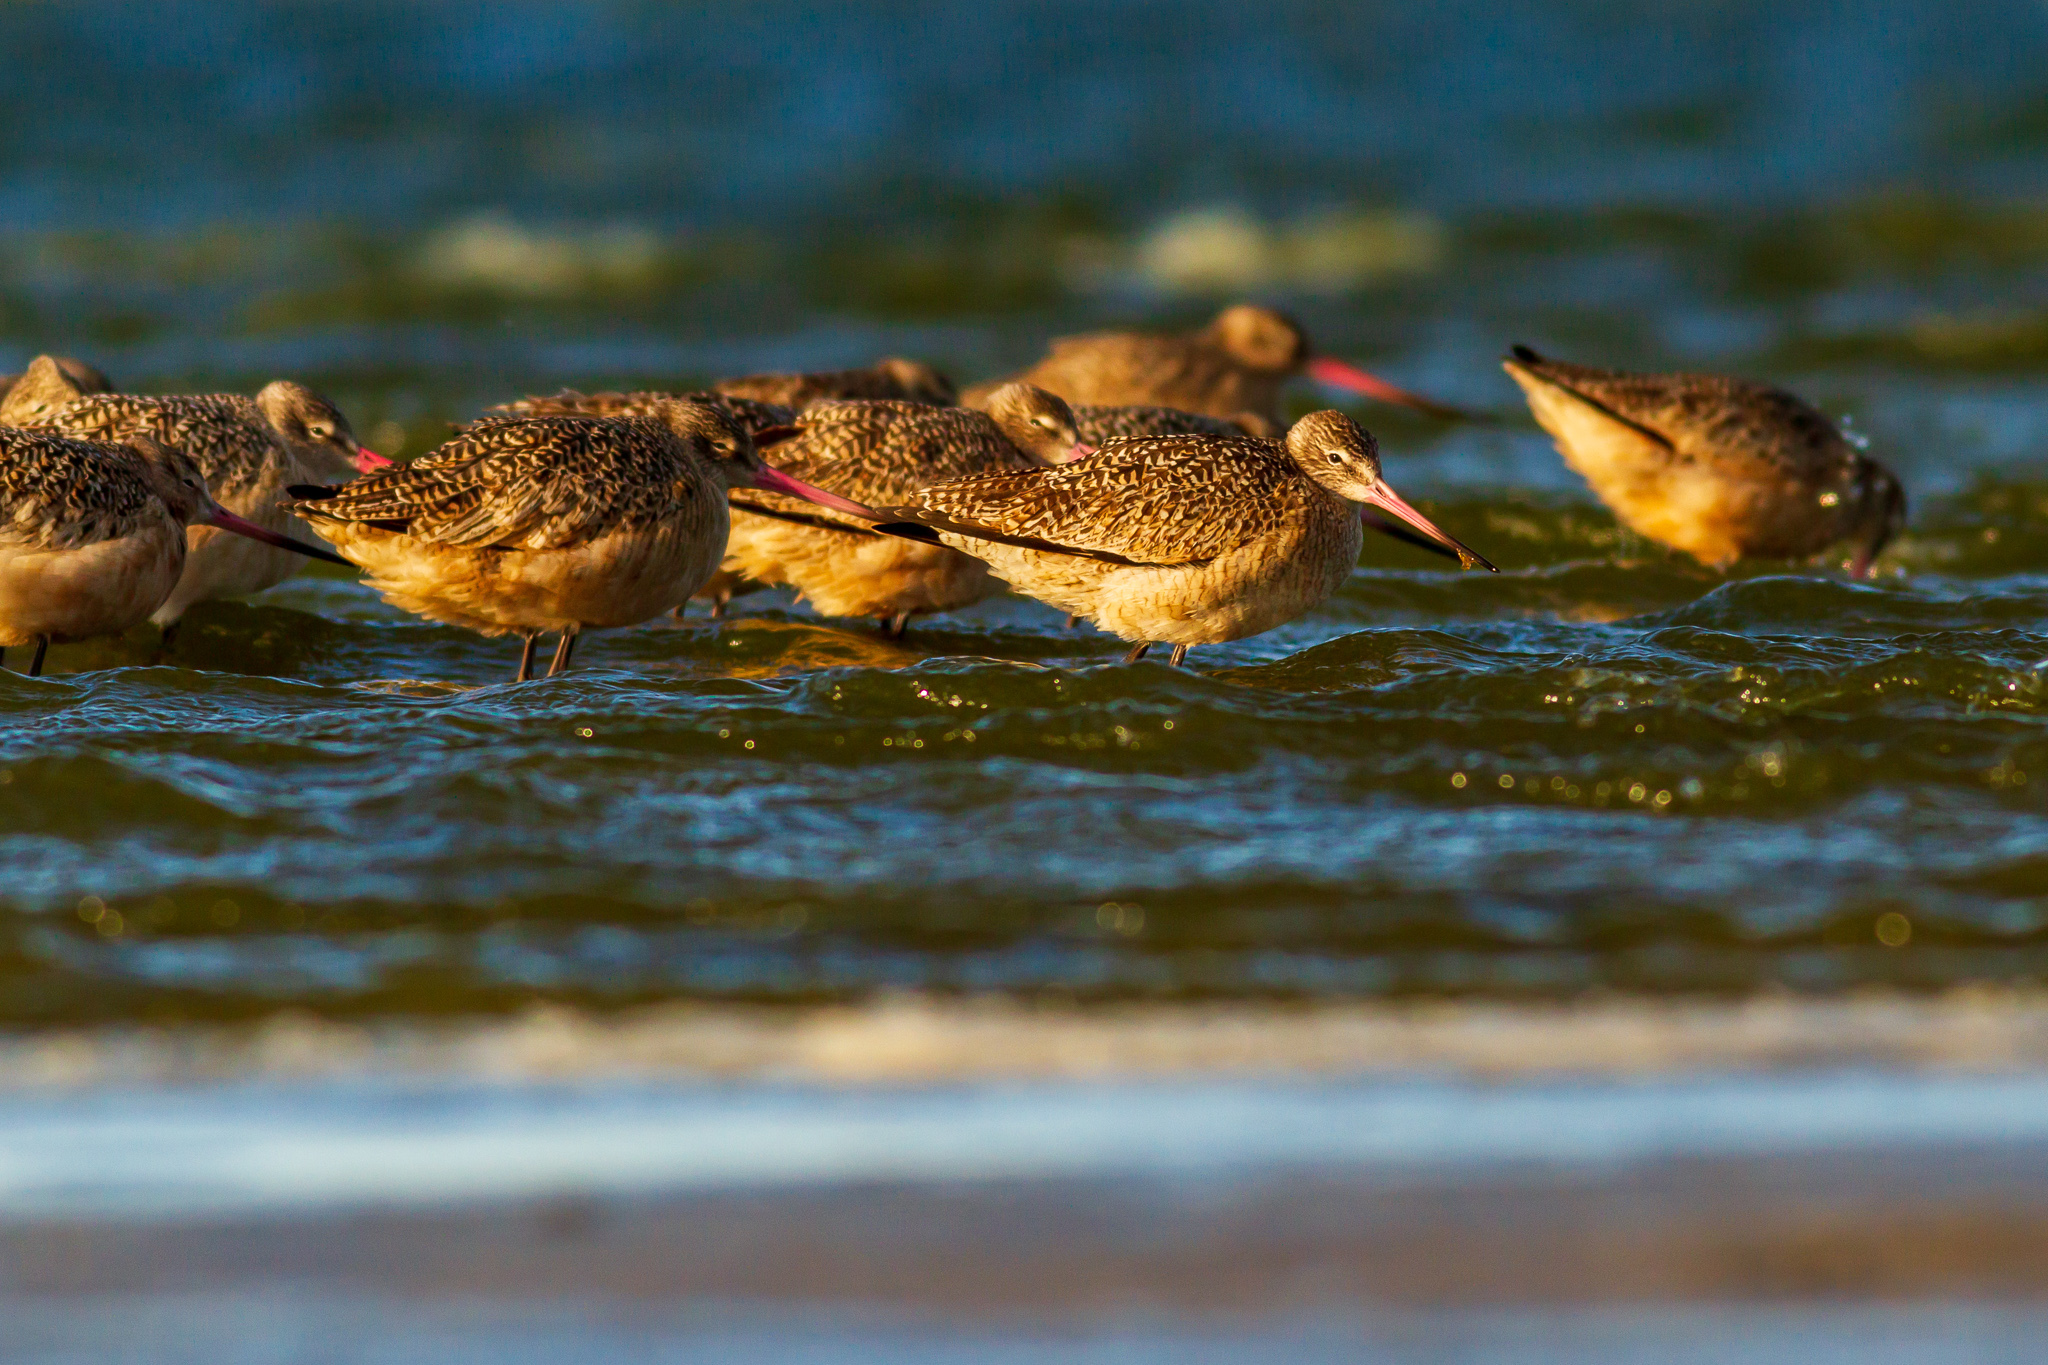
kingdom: Animalia
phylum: Chordata
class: Aves
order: Charadriiformes
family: Scolopacidae
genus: Limosa
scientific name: Limosa fedoa
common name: Marbled godwit
